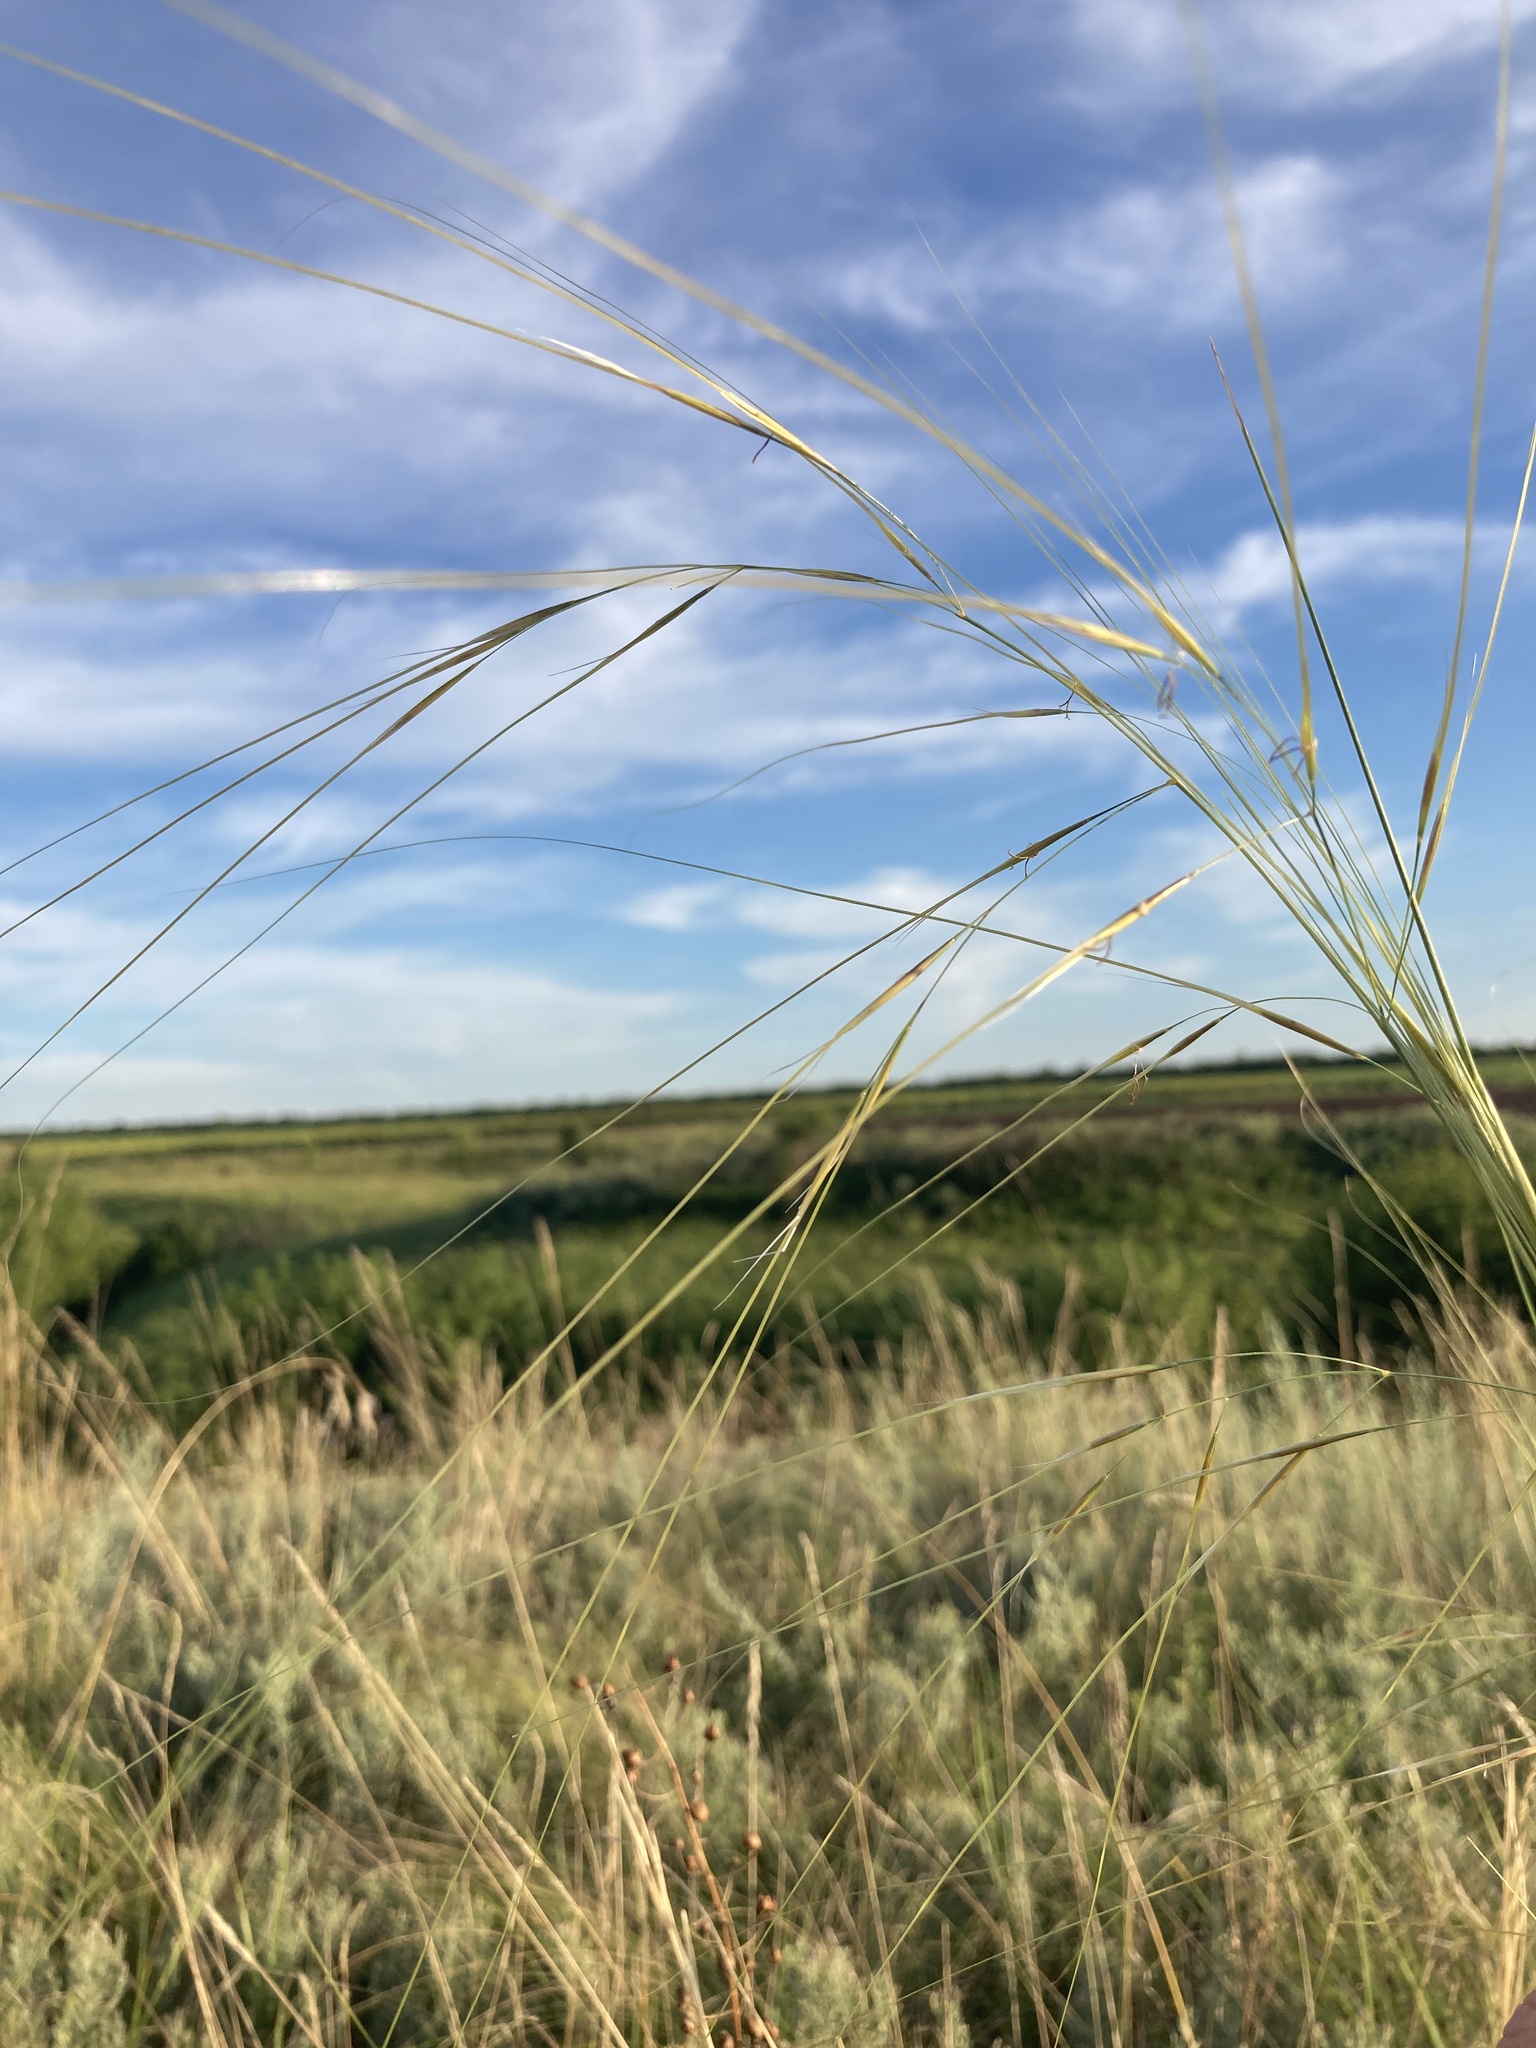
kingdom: Plantae
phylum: Tracheophyta
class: Liliopsida
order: Poales
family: Poaceae
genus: Stipa
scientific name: Stipa capillata
